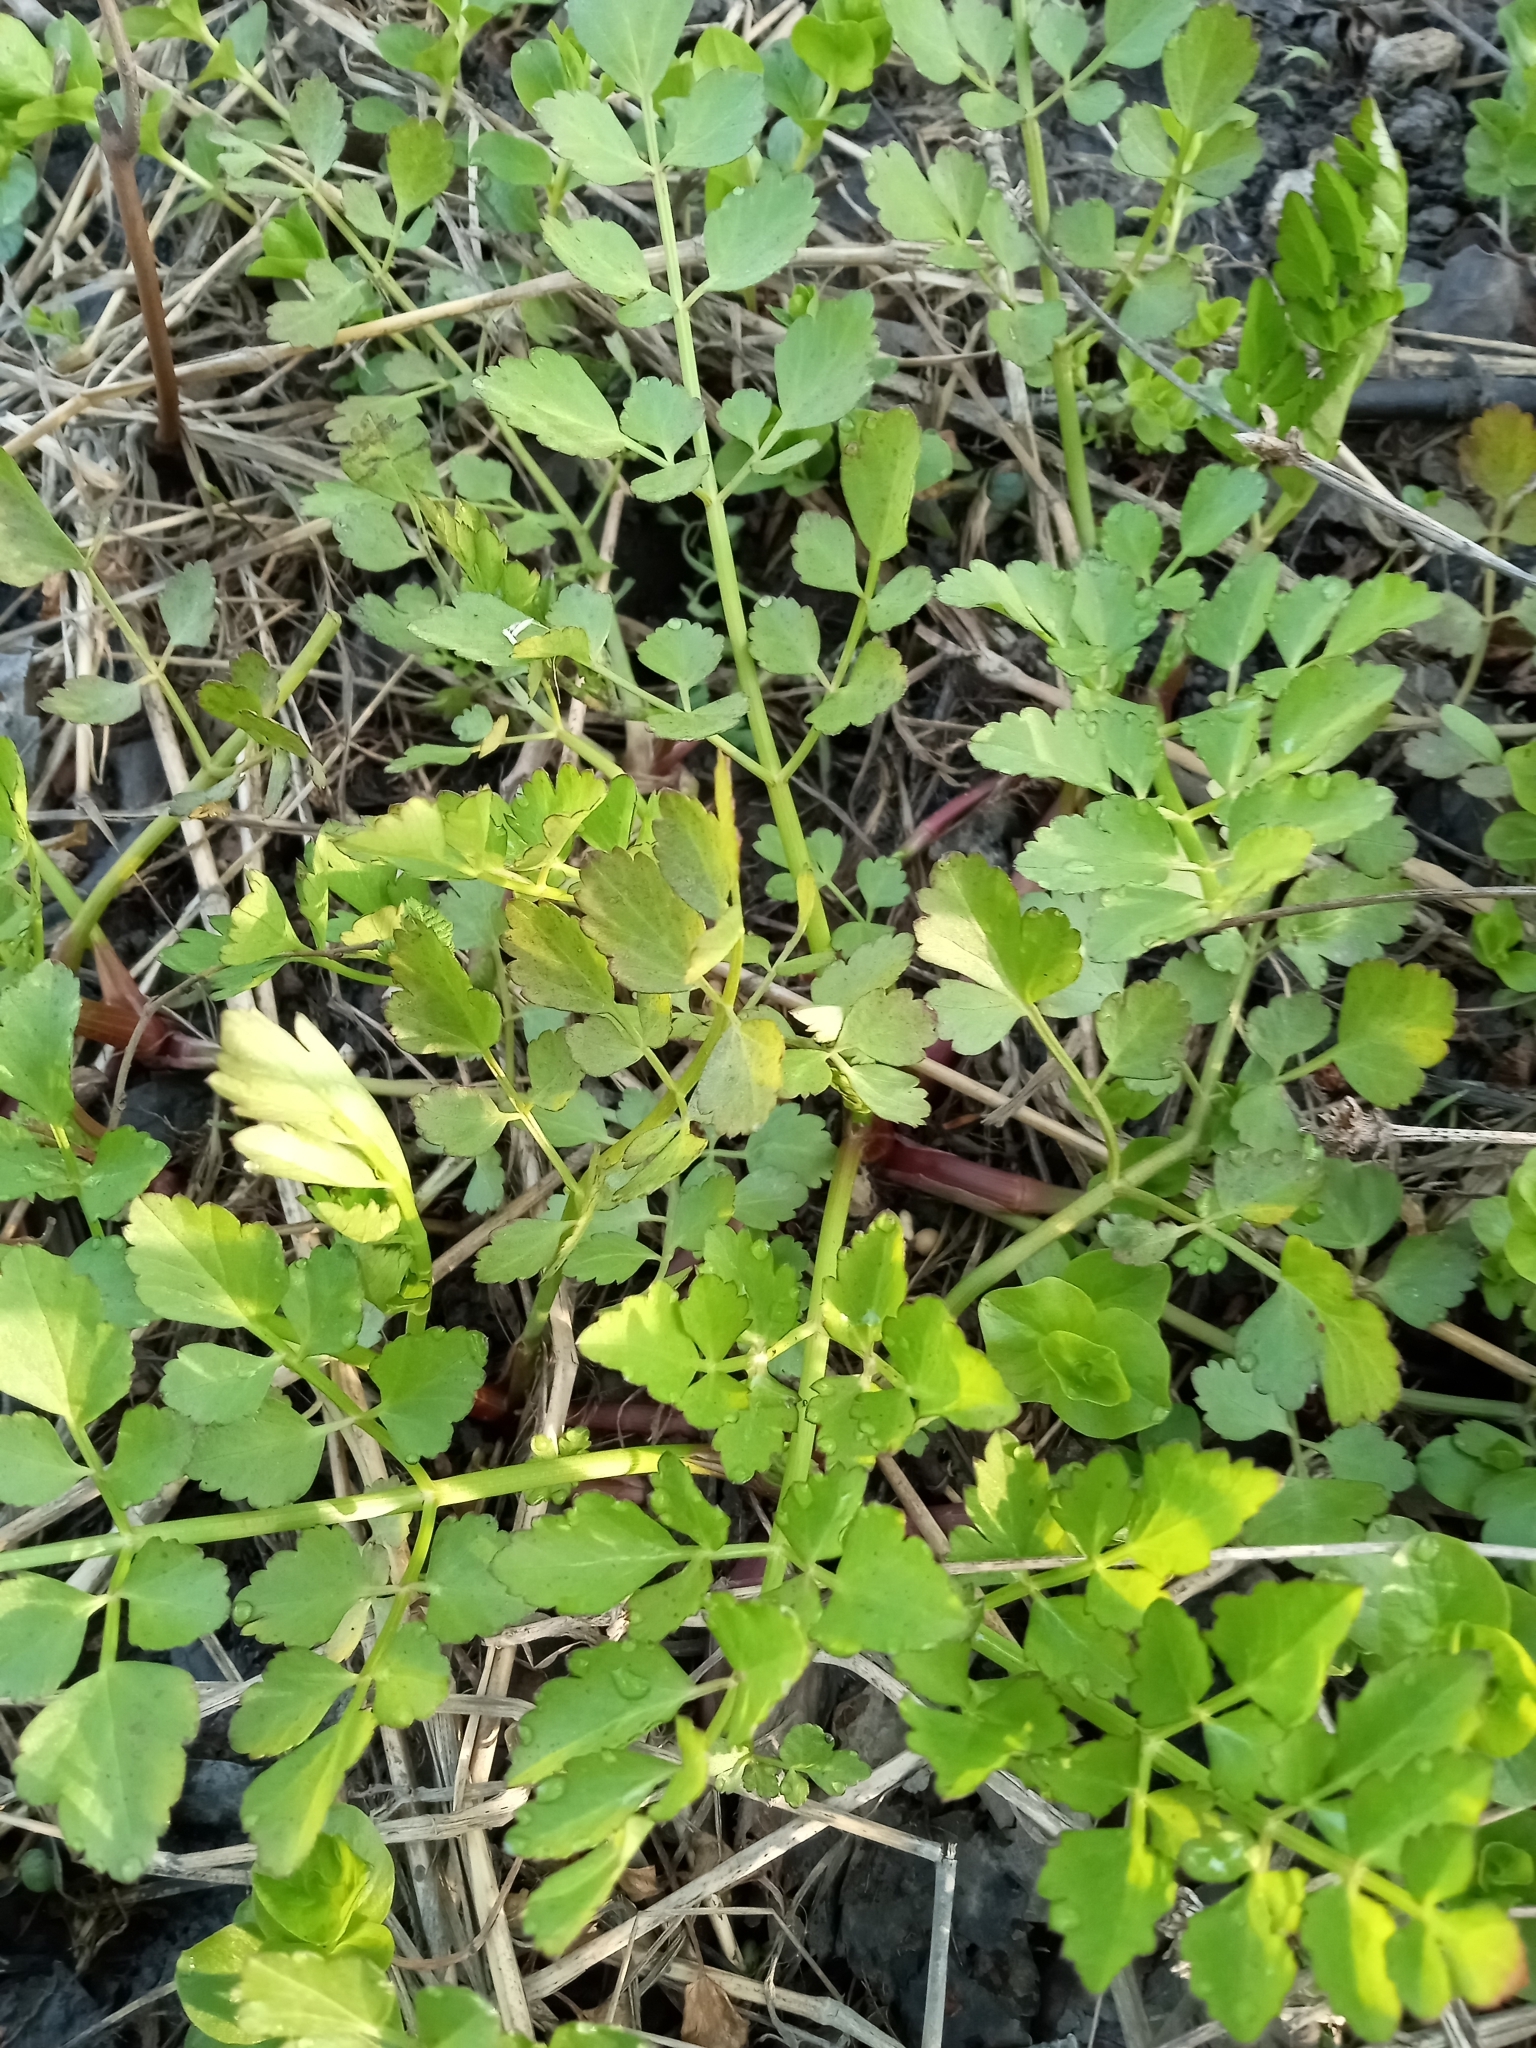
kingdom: Plantae
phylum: Tracheophyta
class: Magnoliopsida
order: Apiales
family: Apiaceae
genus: Oenanthe
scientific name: Oenanthe javanica
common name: Java water-dropwort
